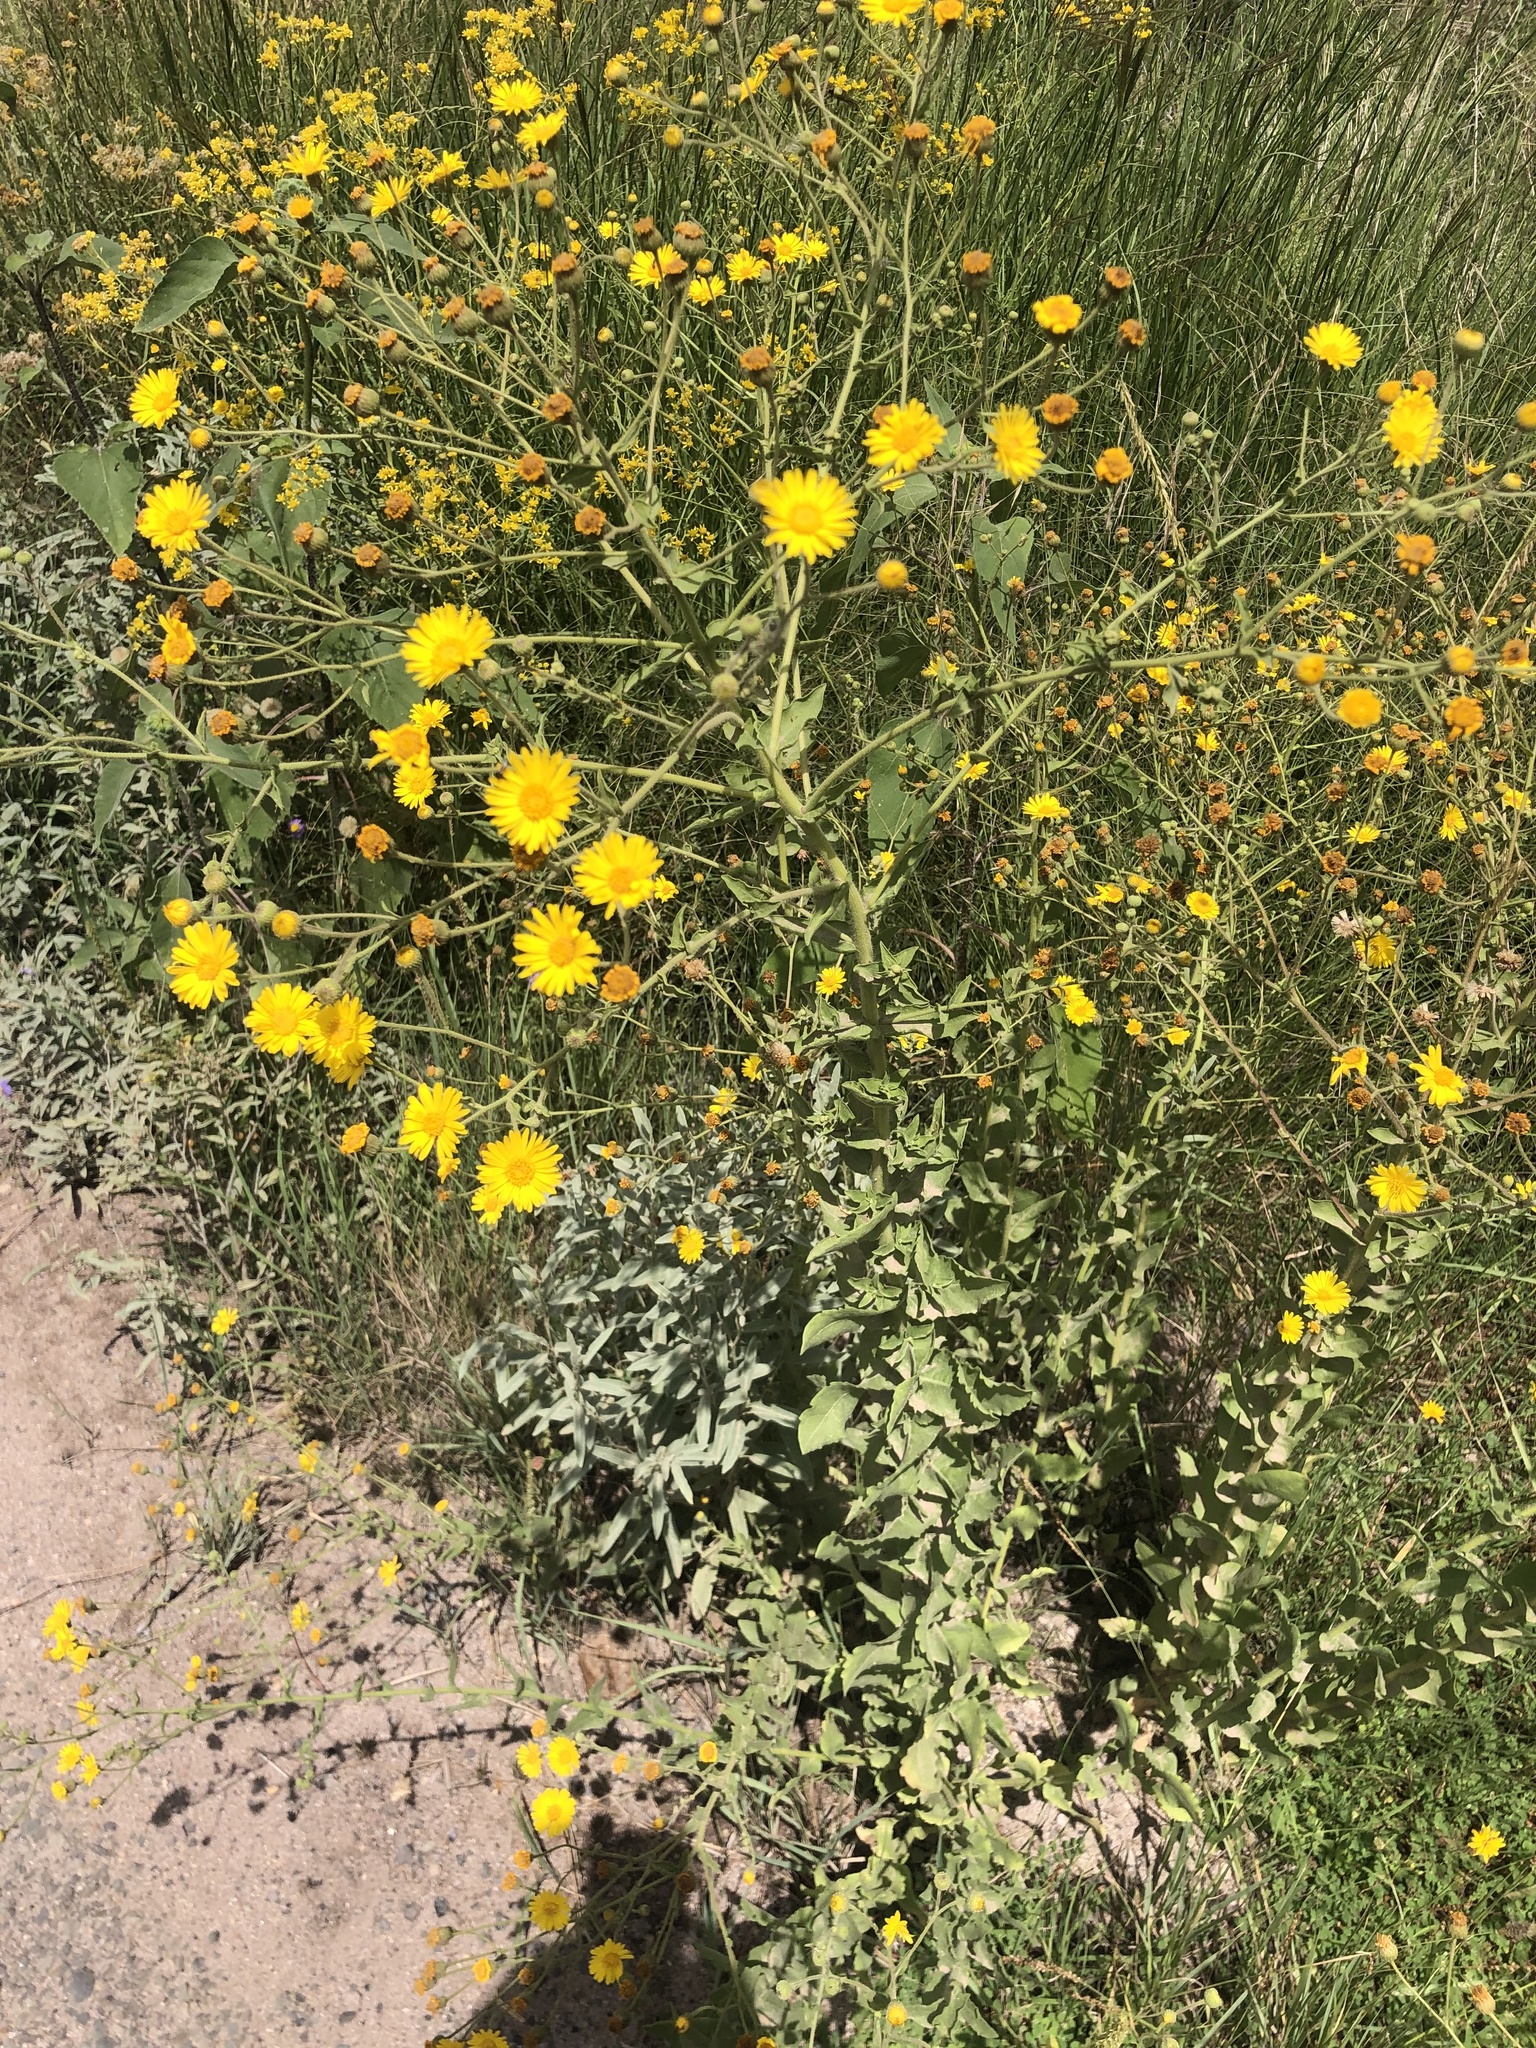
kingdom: Plantae
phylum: Tracheophyta
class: Magnoliopsida
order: Asterales
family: Asteraceae
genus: Heterotheca
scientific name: Heterotheca subaxillaris
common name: Camphorweed
